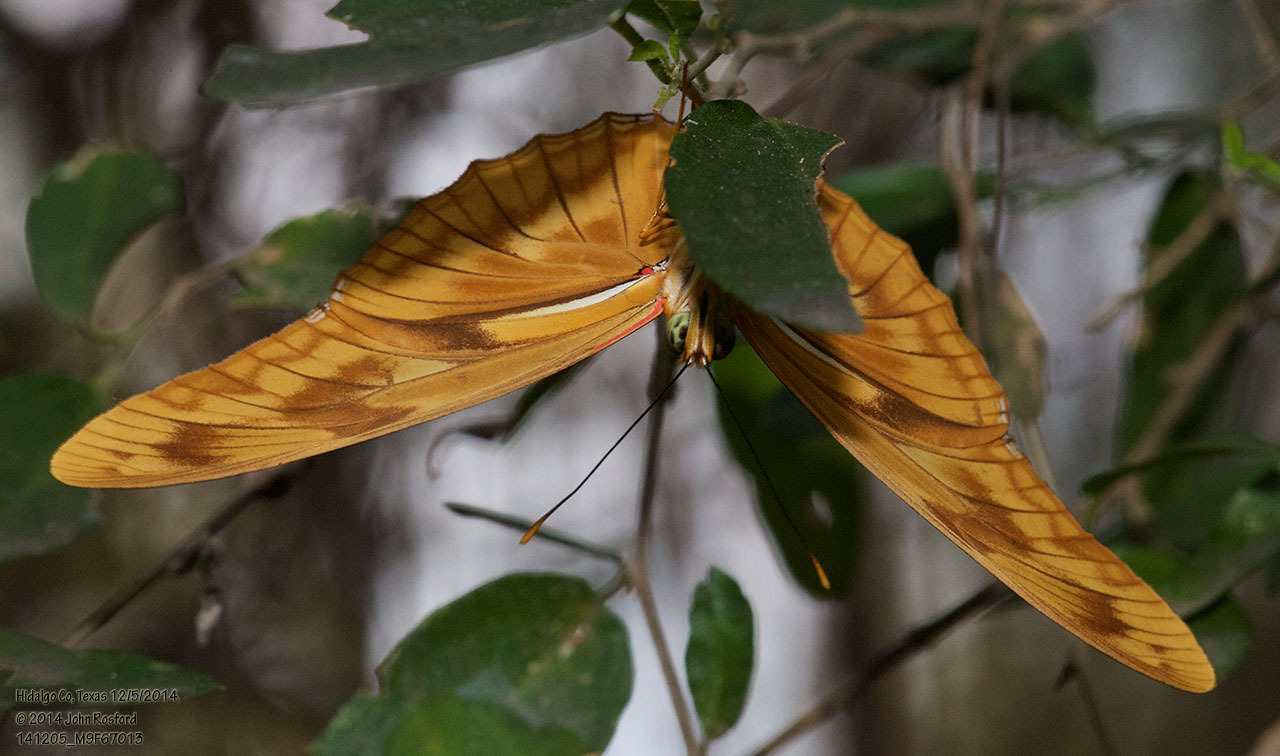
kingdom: Animalia
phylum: Arthropoda
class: Insecta
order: Lepidoptera
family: Nymphalidae
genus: Dryas
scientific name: Dryas iulia
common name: Flambeau
